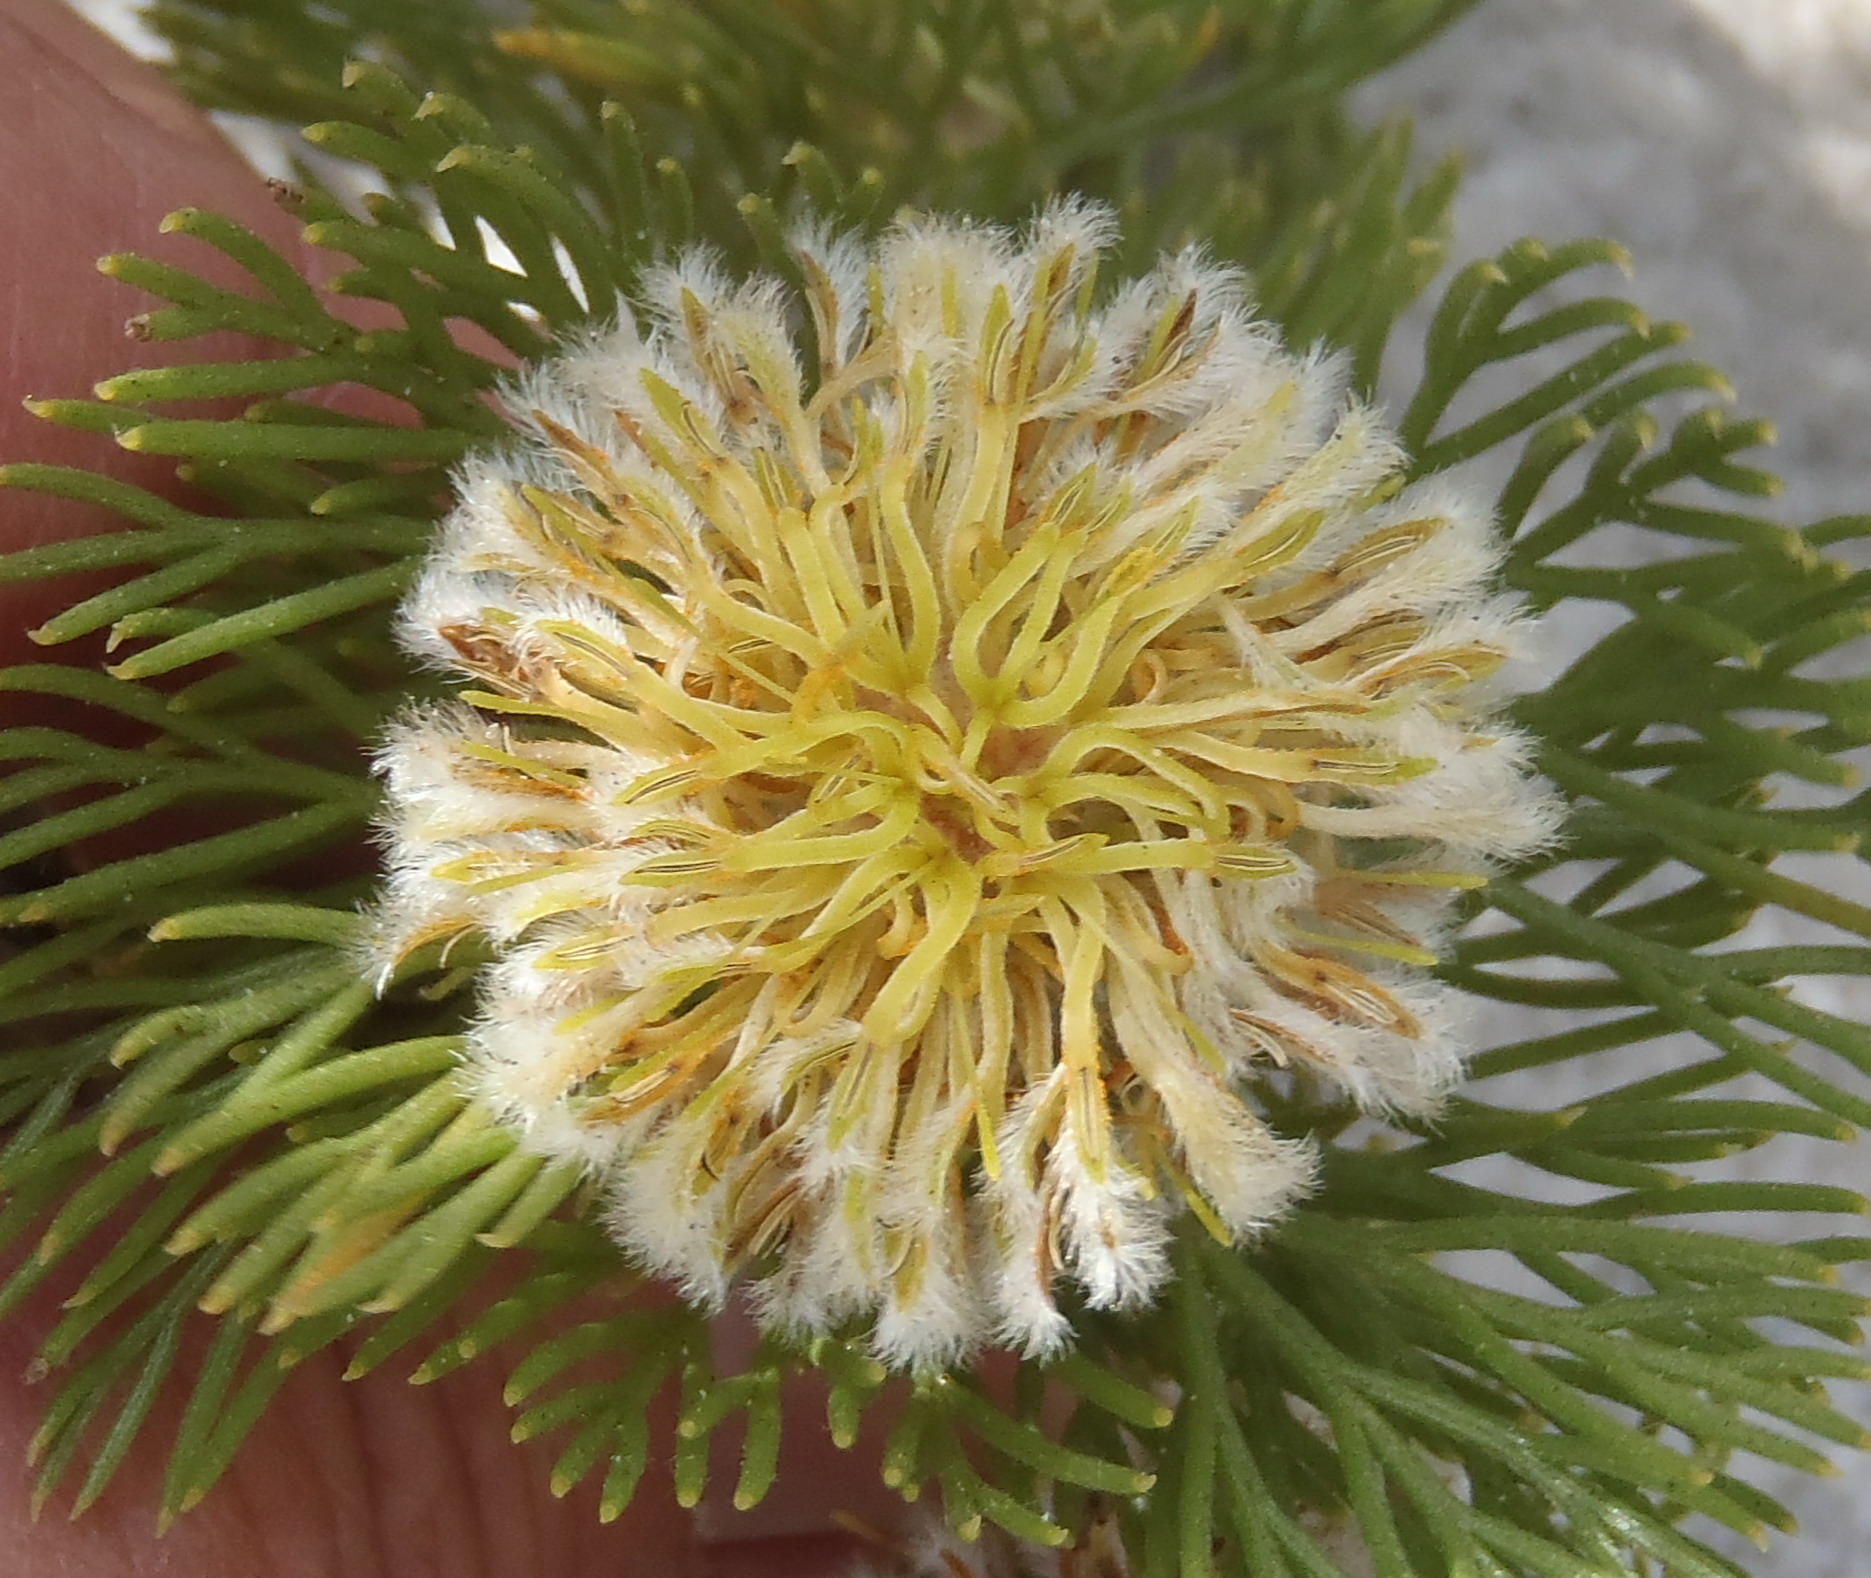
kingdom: Plantae
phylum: Tracheophyta
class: Magnoliopsida
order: Proteales
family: Proteaceae
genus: Serruria
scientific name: Serruria villosa
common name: Golden spiderhead
